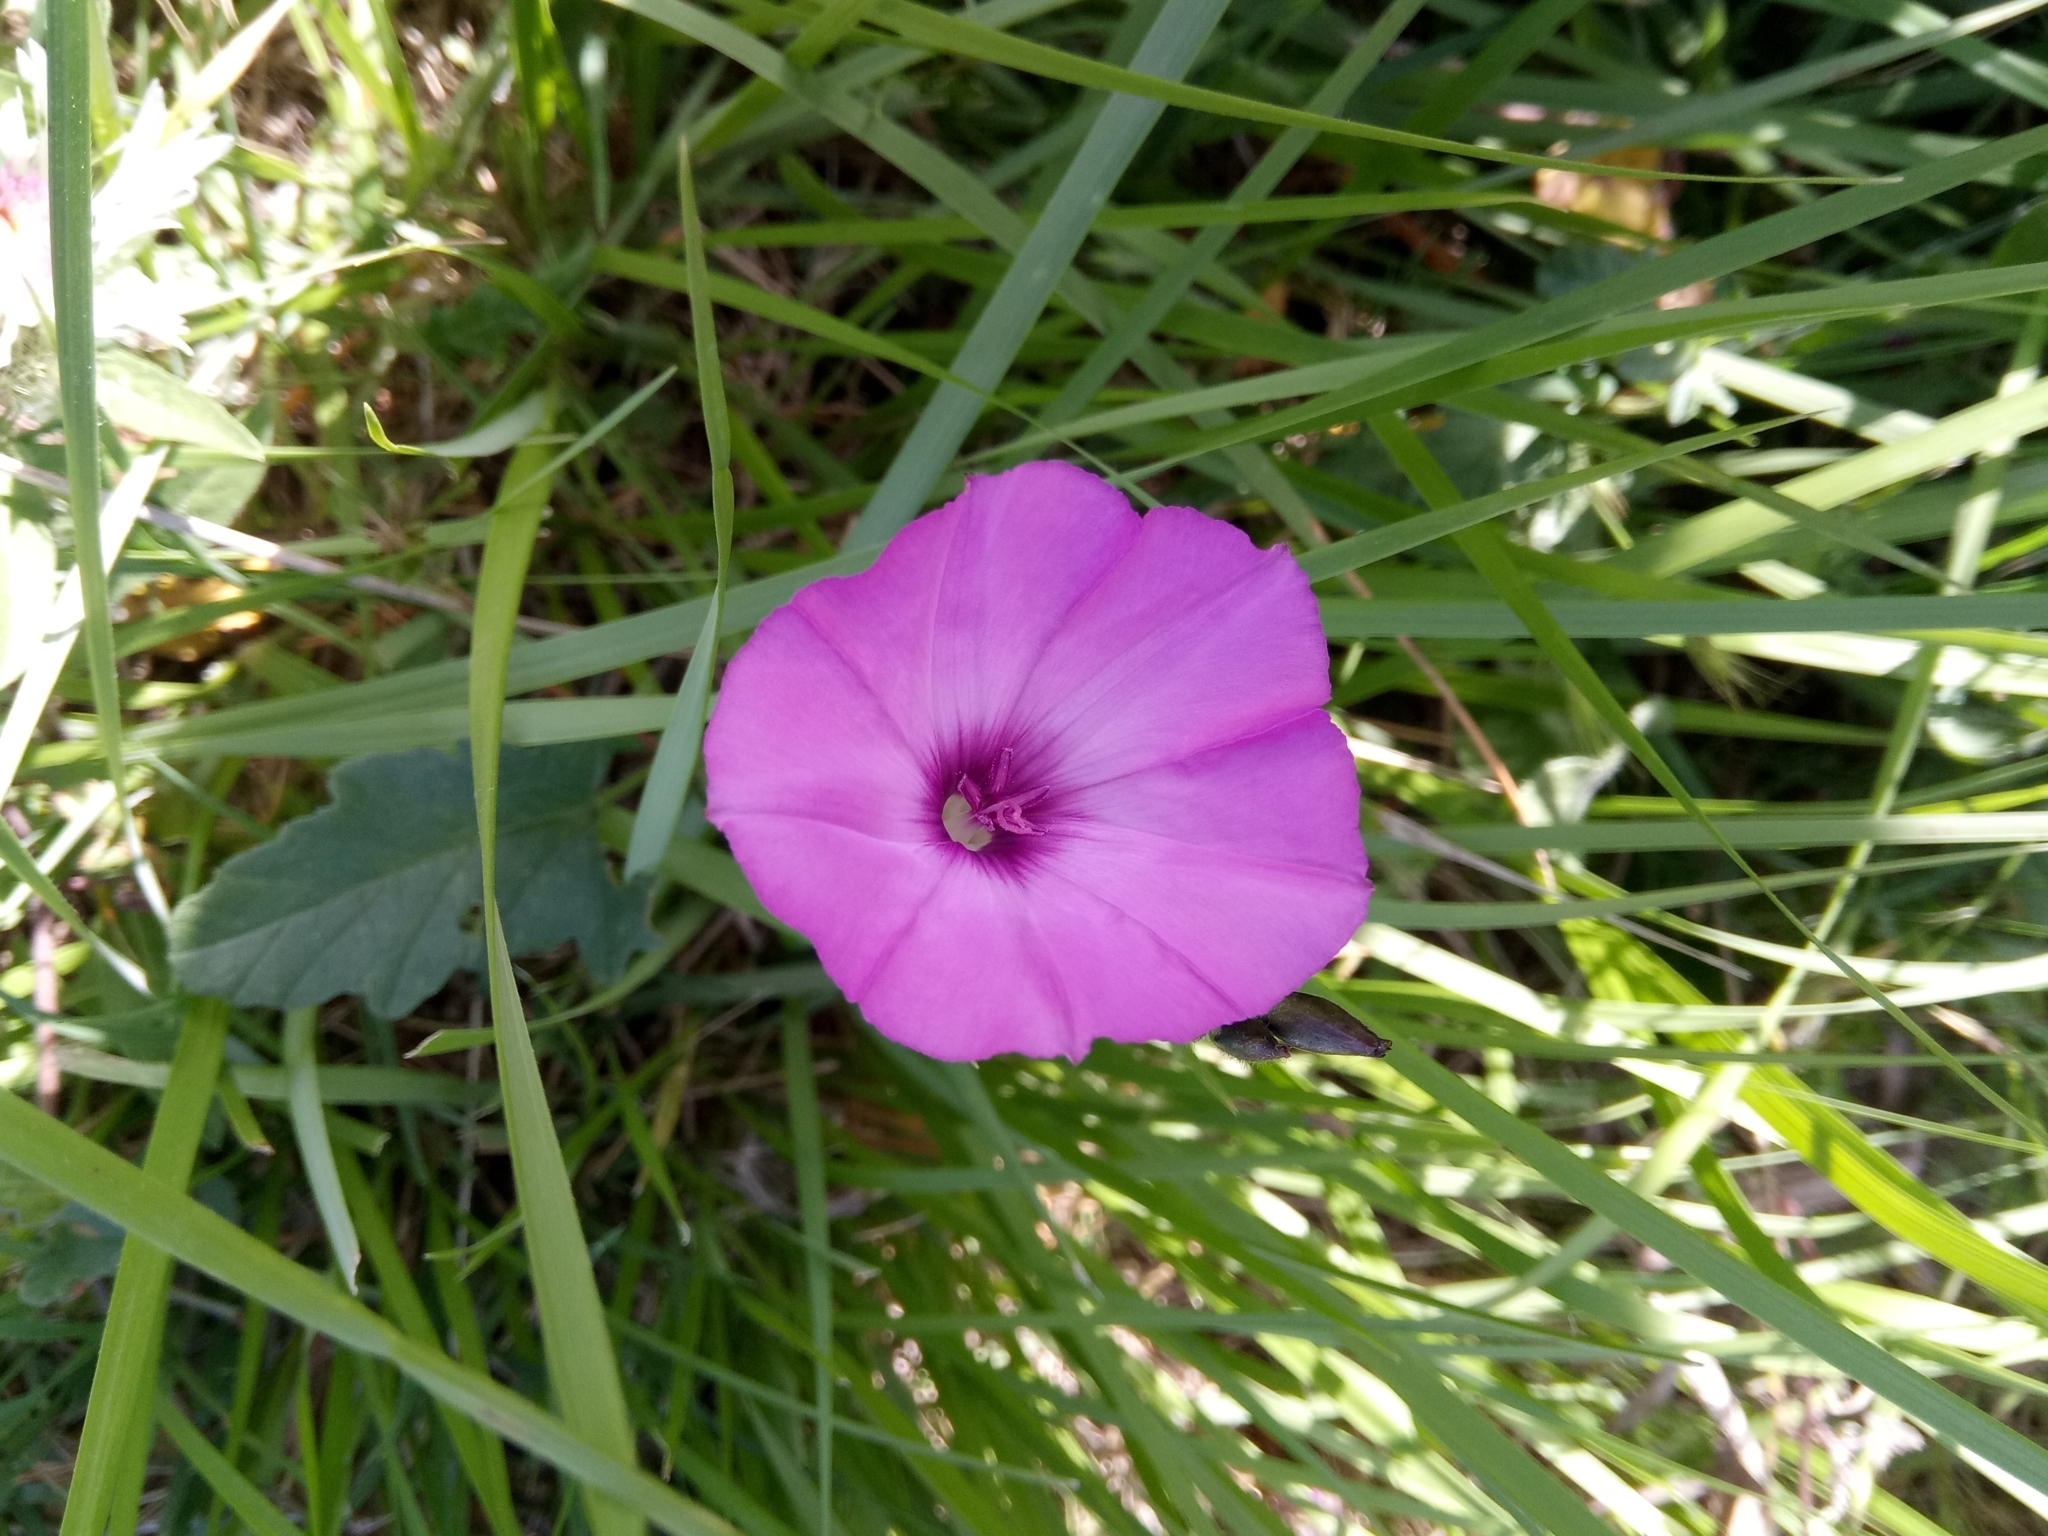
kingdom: Plantae
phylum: Tracheophyta
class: Magnoliopsida
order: Solanales
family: Convolvulaceae
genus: Convolvulus
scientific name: Convolvulus althaeoides
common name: Mallow bindweed
